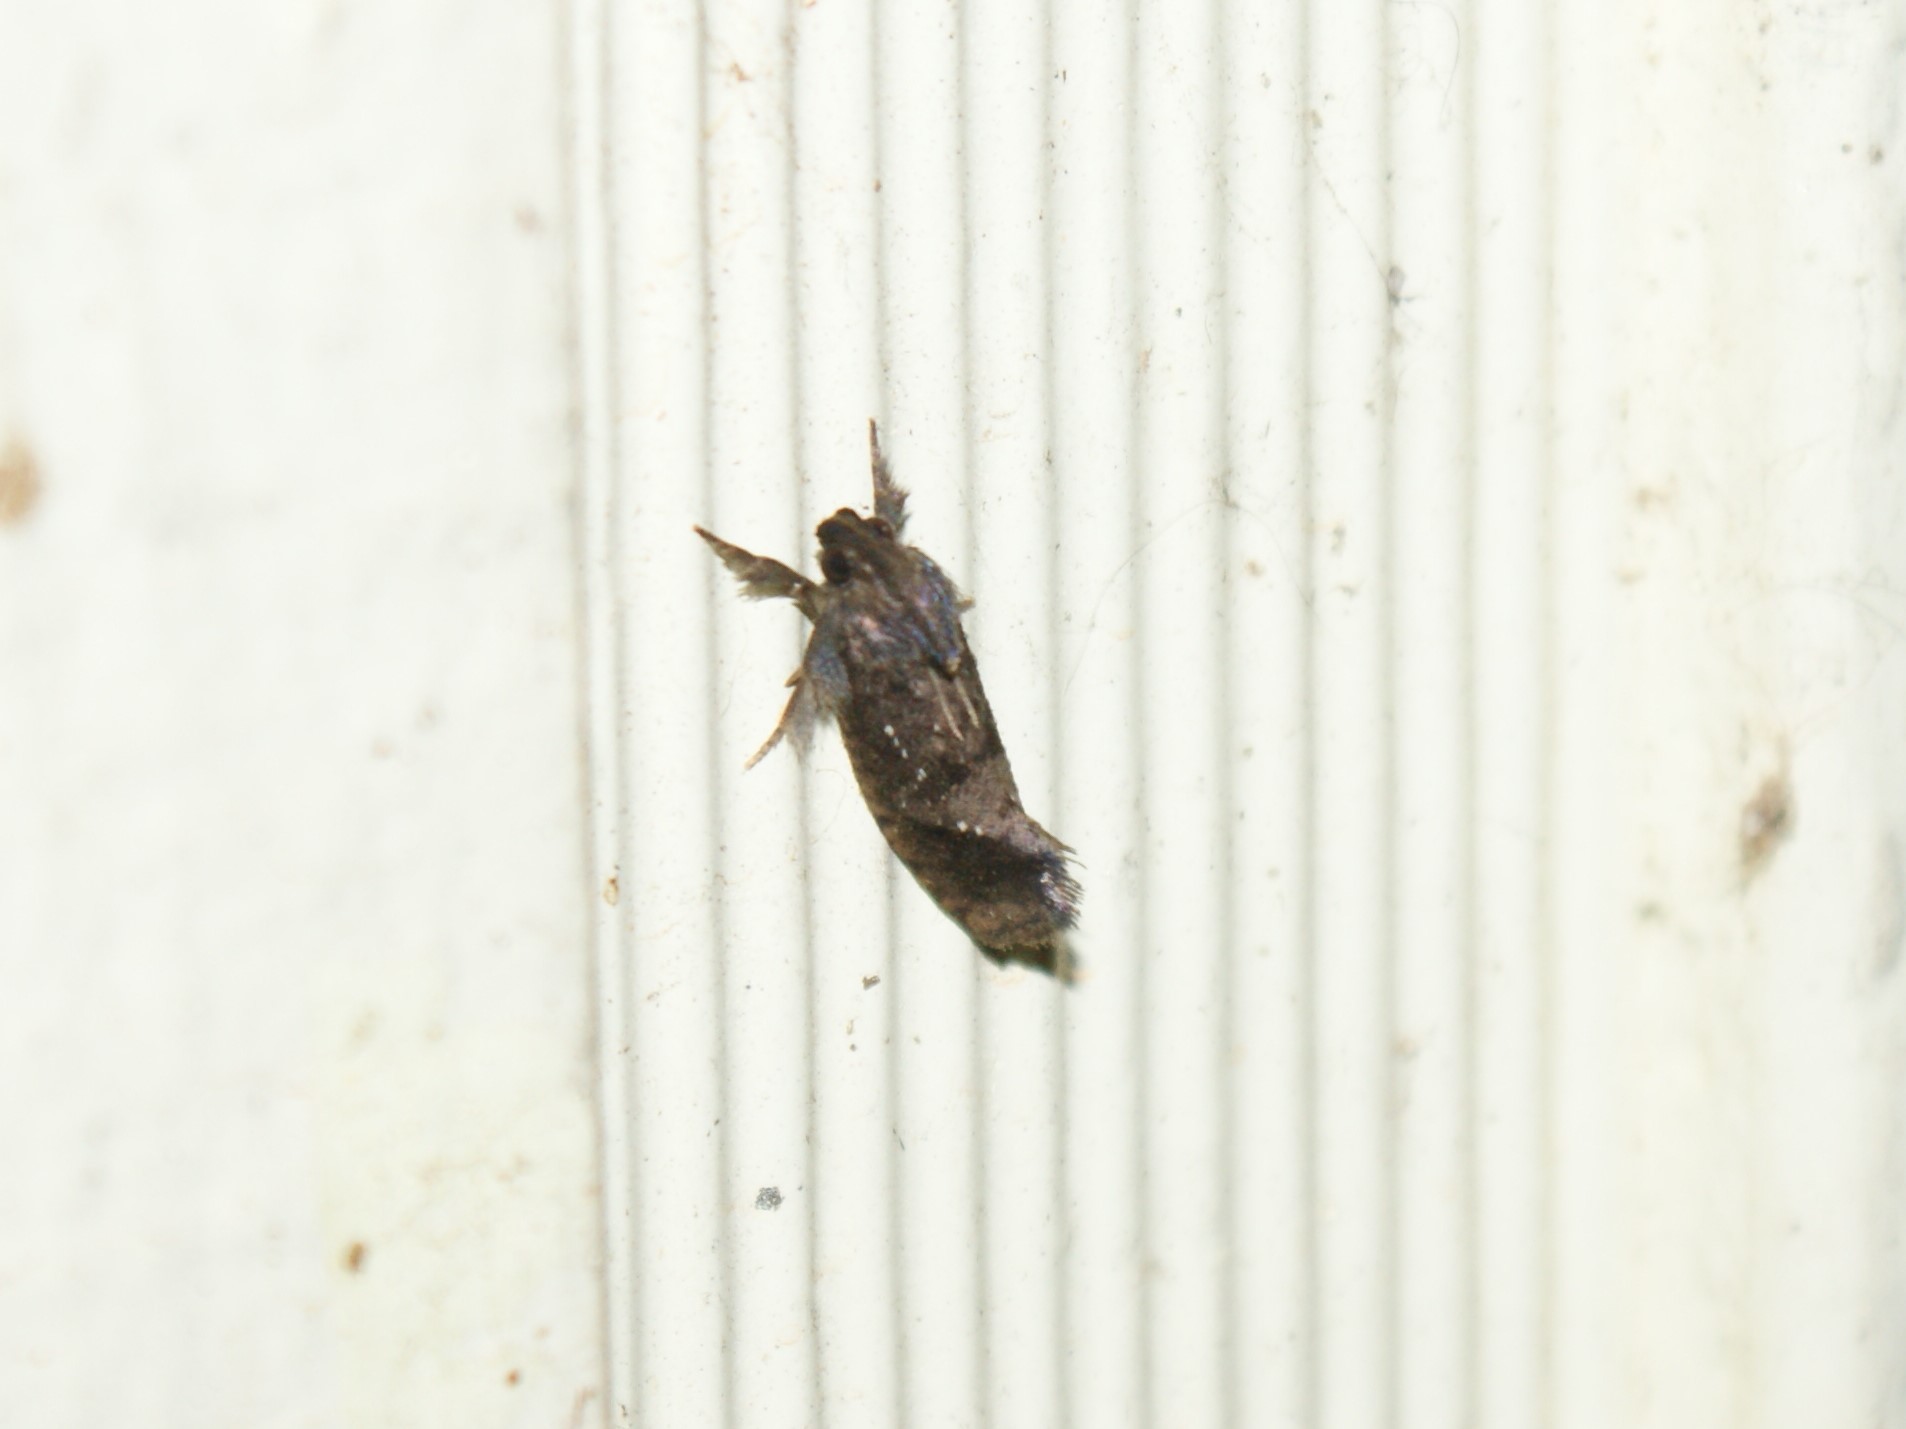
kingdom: Animalia
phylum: Arthropoda
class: Insecta
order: Lepidoptera
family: Tineidae
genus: Acrolophus
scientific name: Acrolophus texanella
